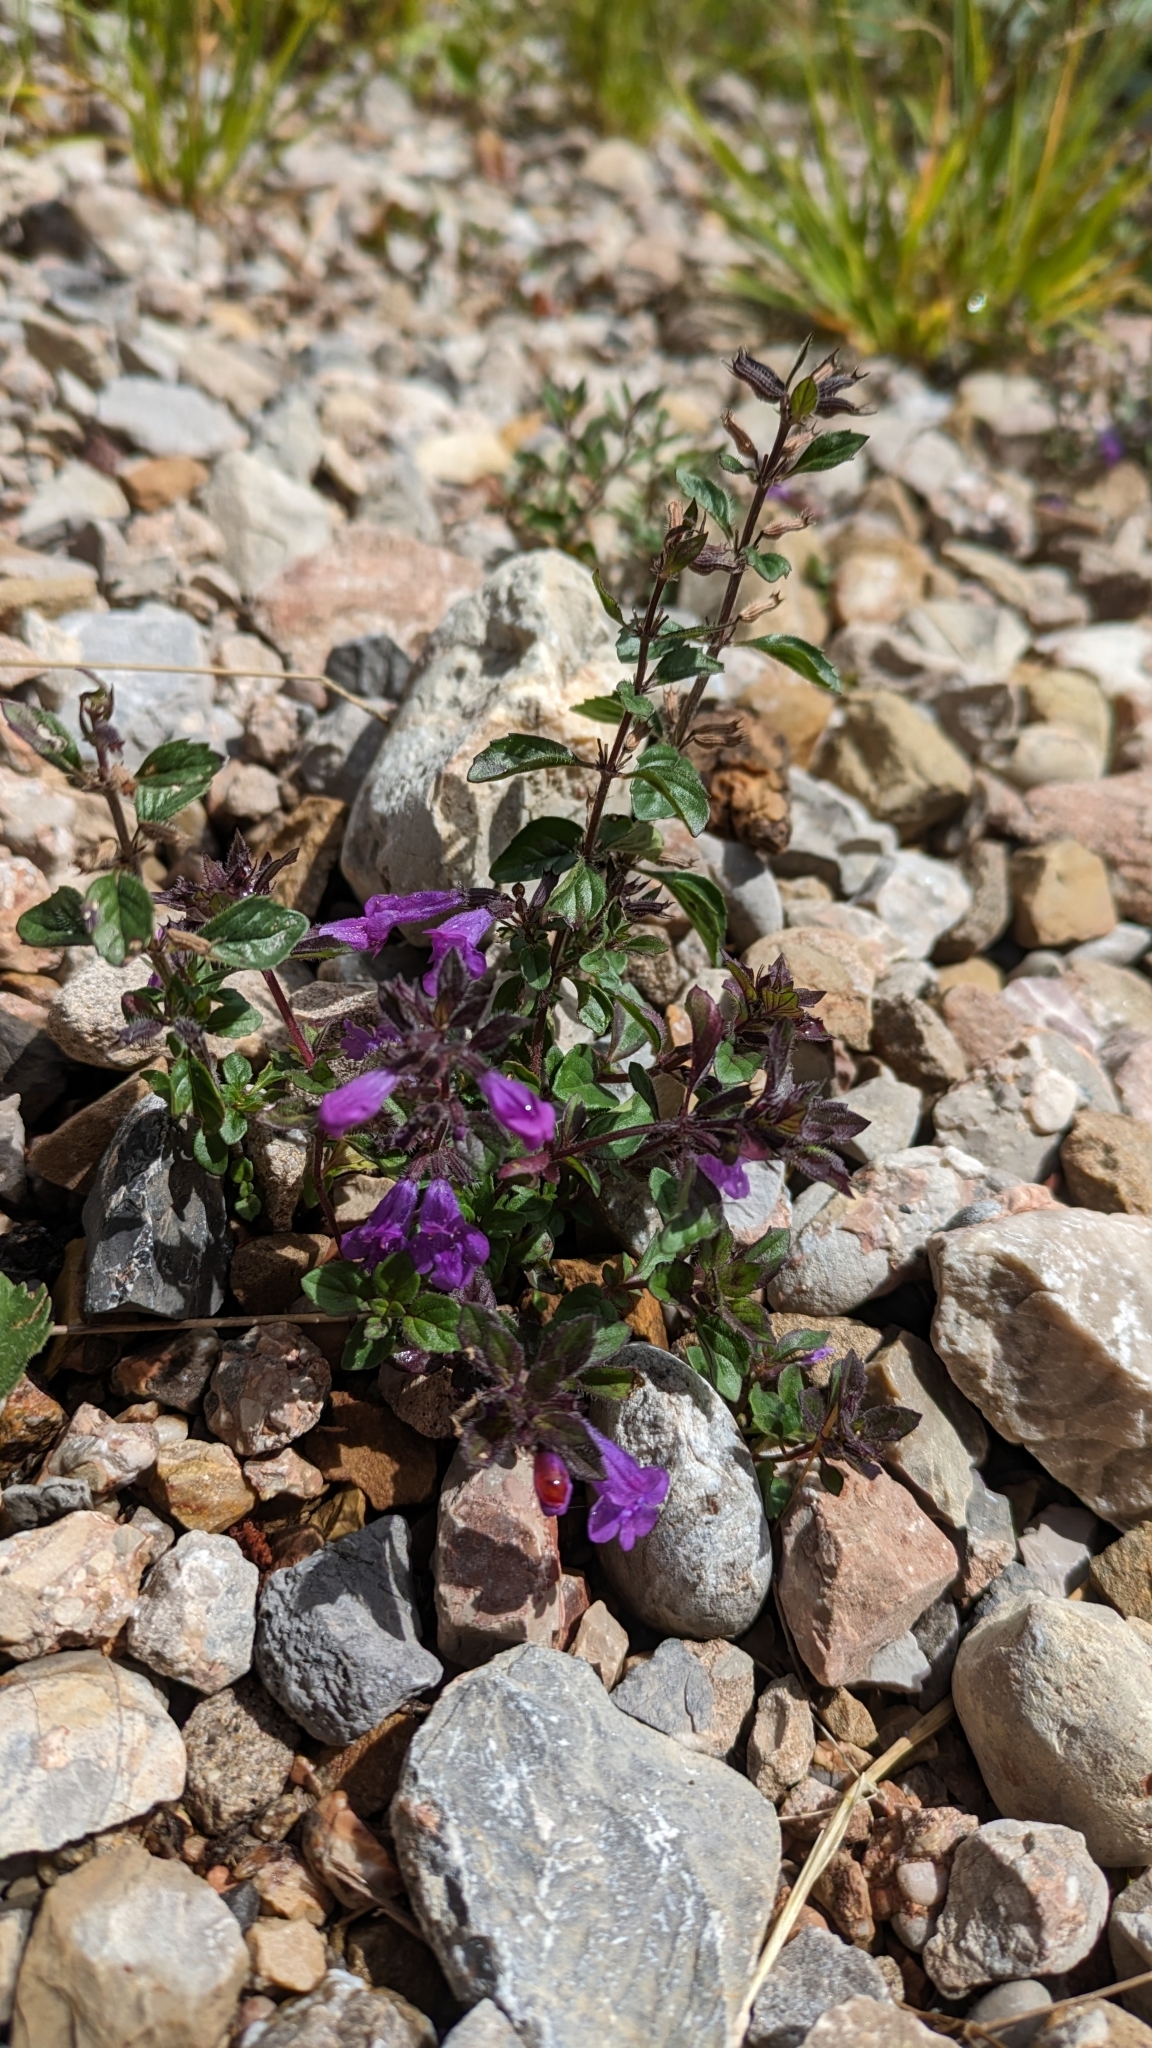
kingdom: Plantae
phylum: Tracheophyta
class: Magnoliopsida
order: Lamiales
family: Lamiaceae
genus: Clinopodium
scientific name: Clinopodium alpinum
